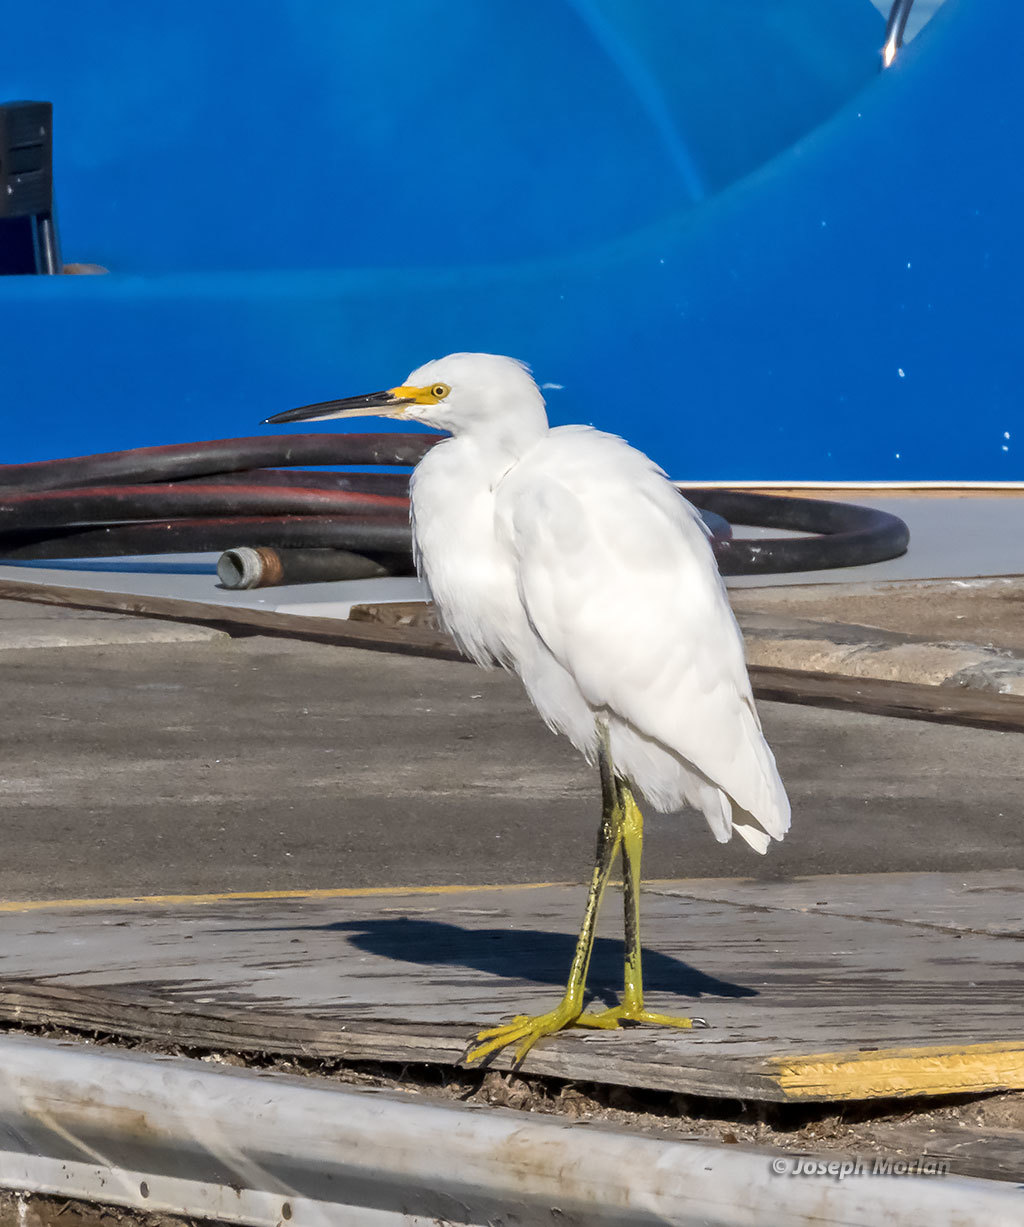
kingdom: Animalia
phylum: Chordata
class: Aves
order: Pelecaniformes
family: Ardeidae
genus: Egretta
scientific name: Egretta thula
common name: Snowy egret
